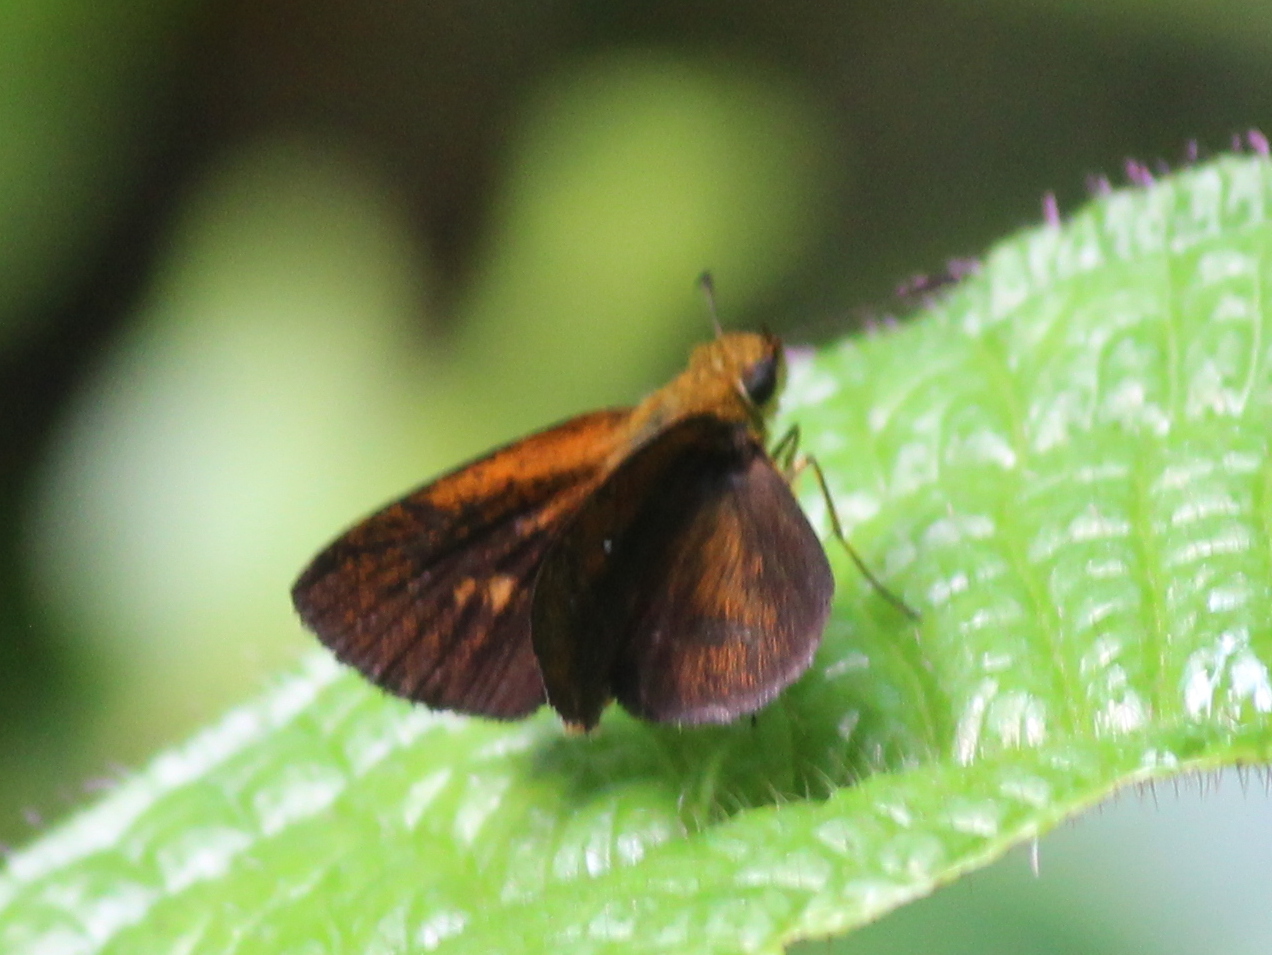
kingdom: Animalia
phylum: Arthropoda
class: Insecta
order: Lepidoptera
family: Hesperiidae
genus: Iambrix
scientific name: Iambrix salsala
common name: Chestnut bob
